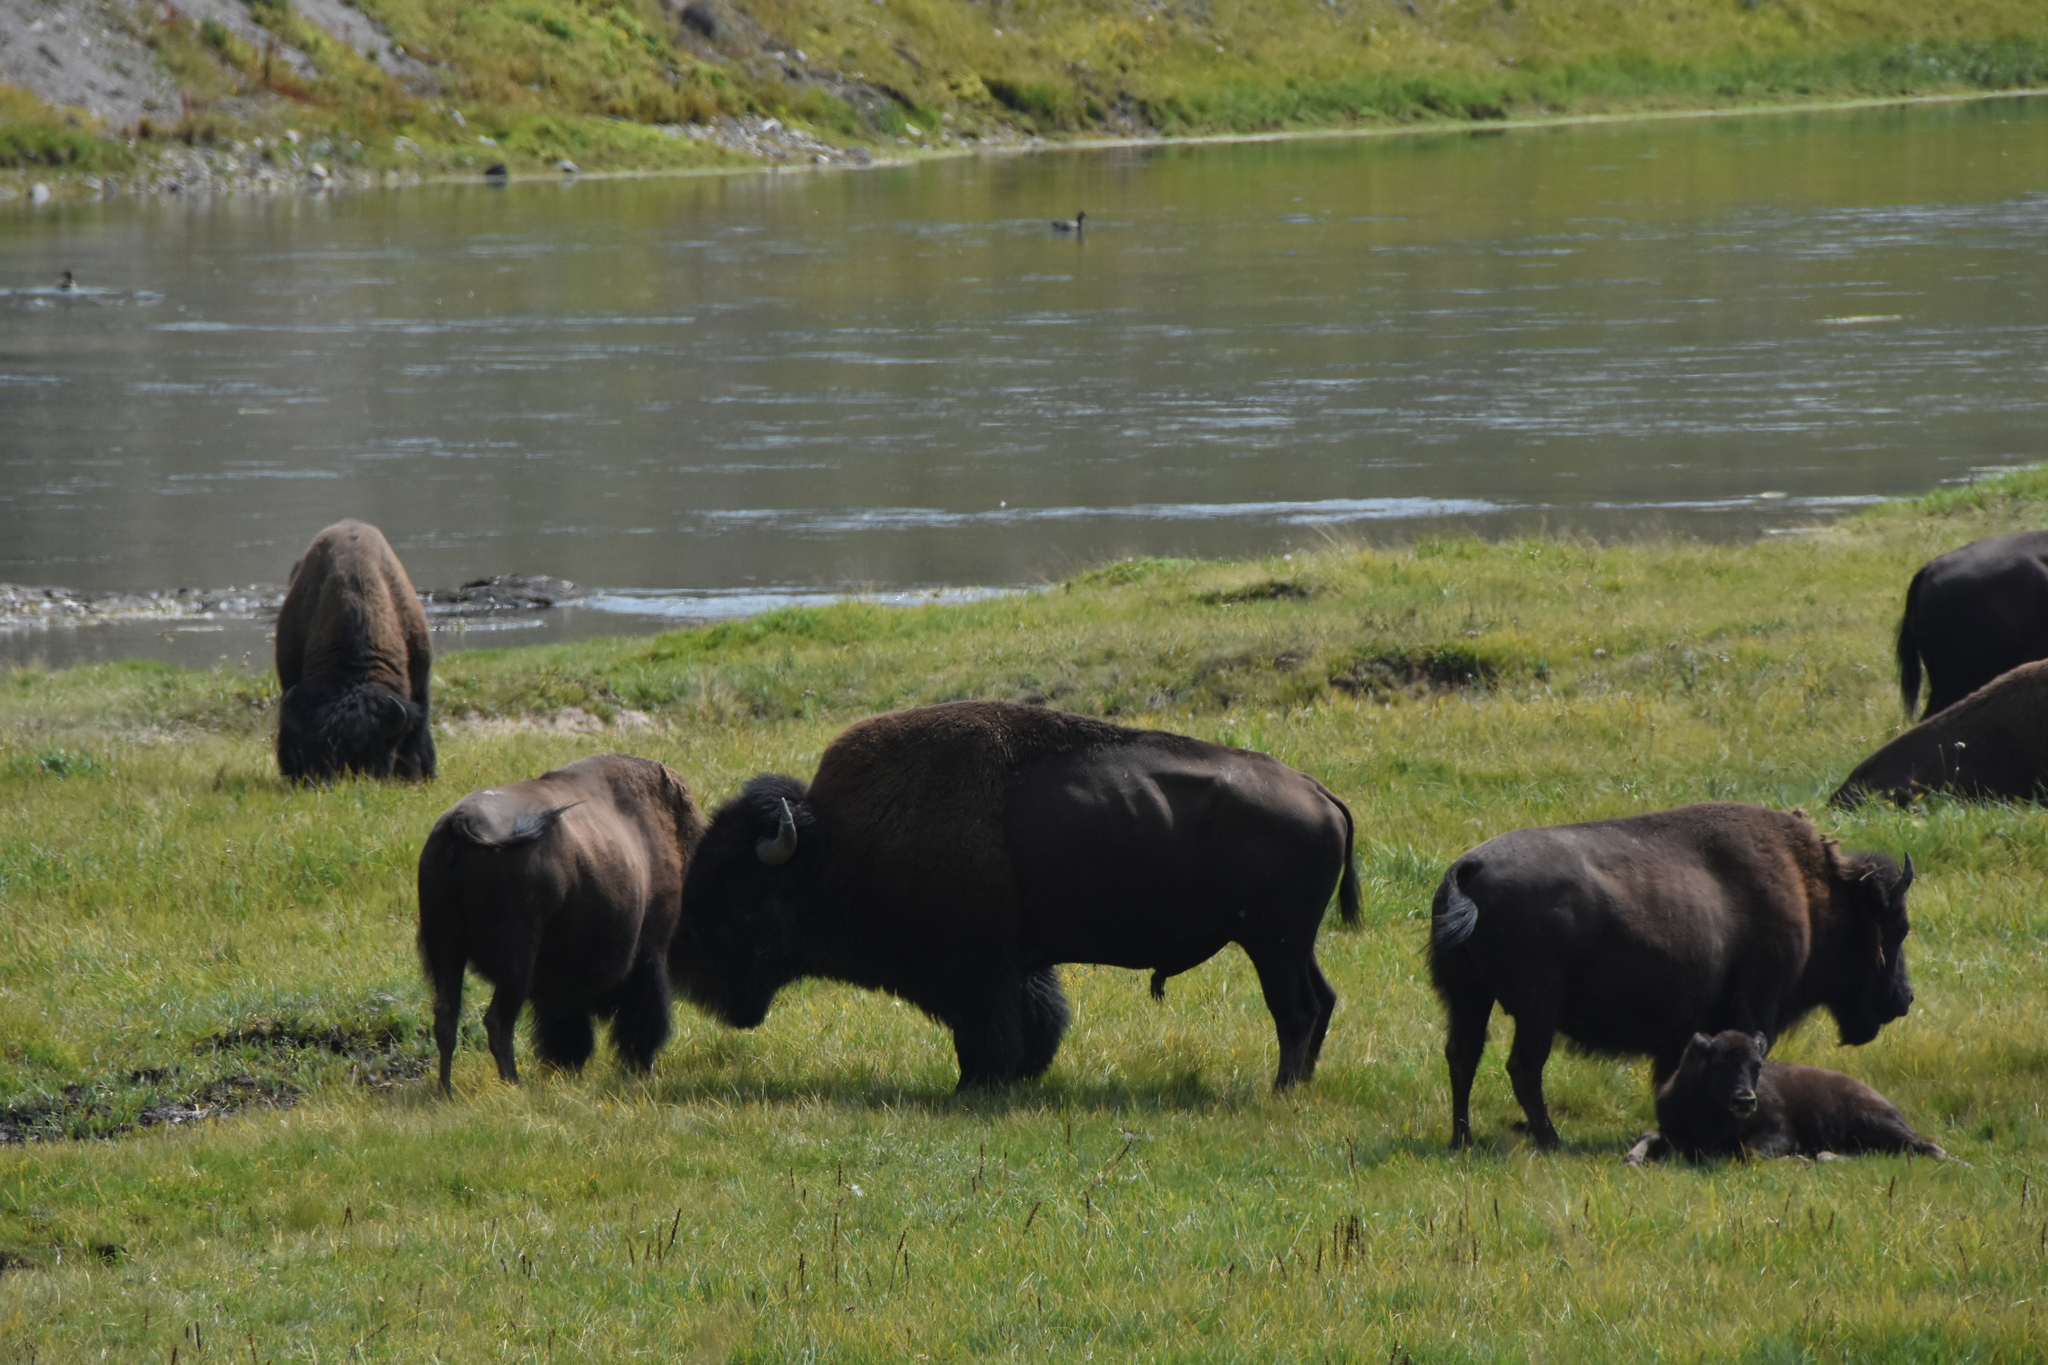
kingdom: Animalia
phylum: Chordata
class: Mammalia
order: Artiodactyla
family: Bovidae
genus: Bison
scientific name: Bison bison
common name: American bison
